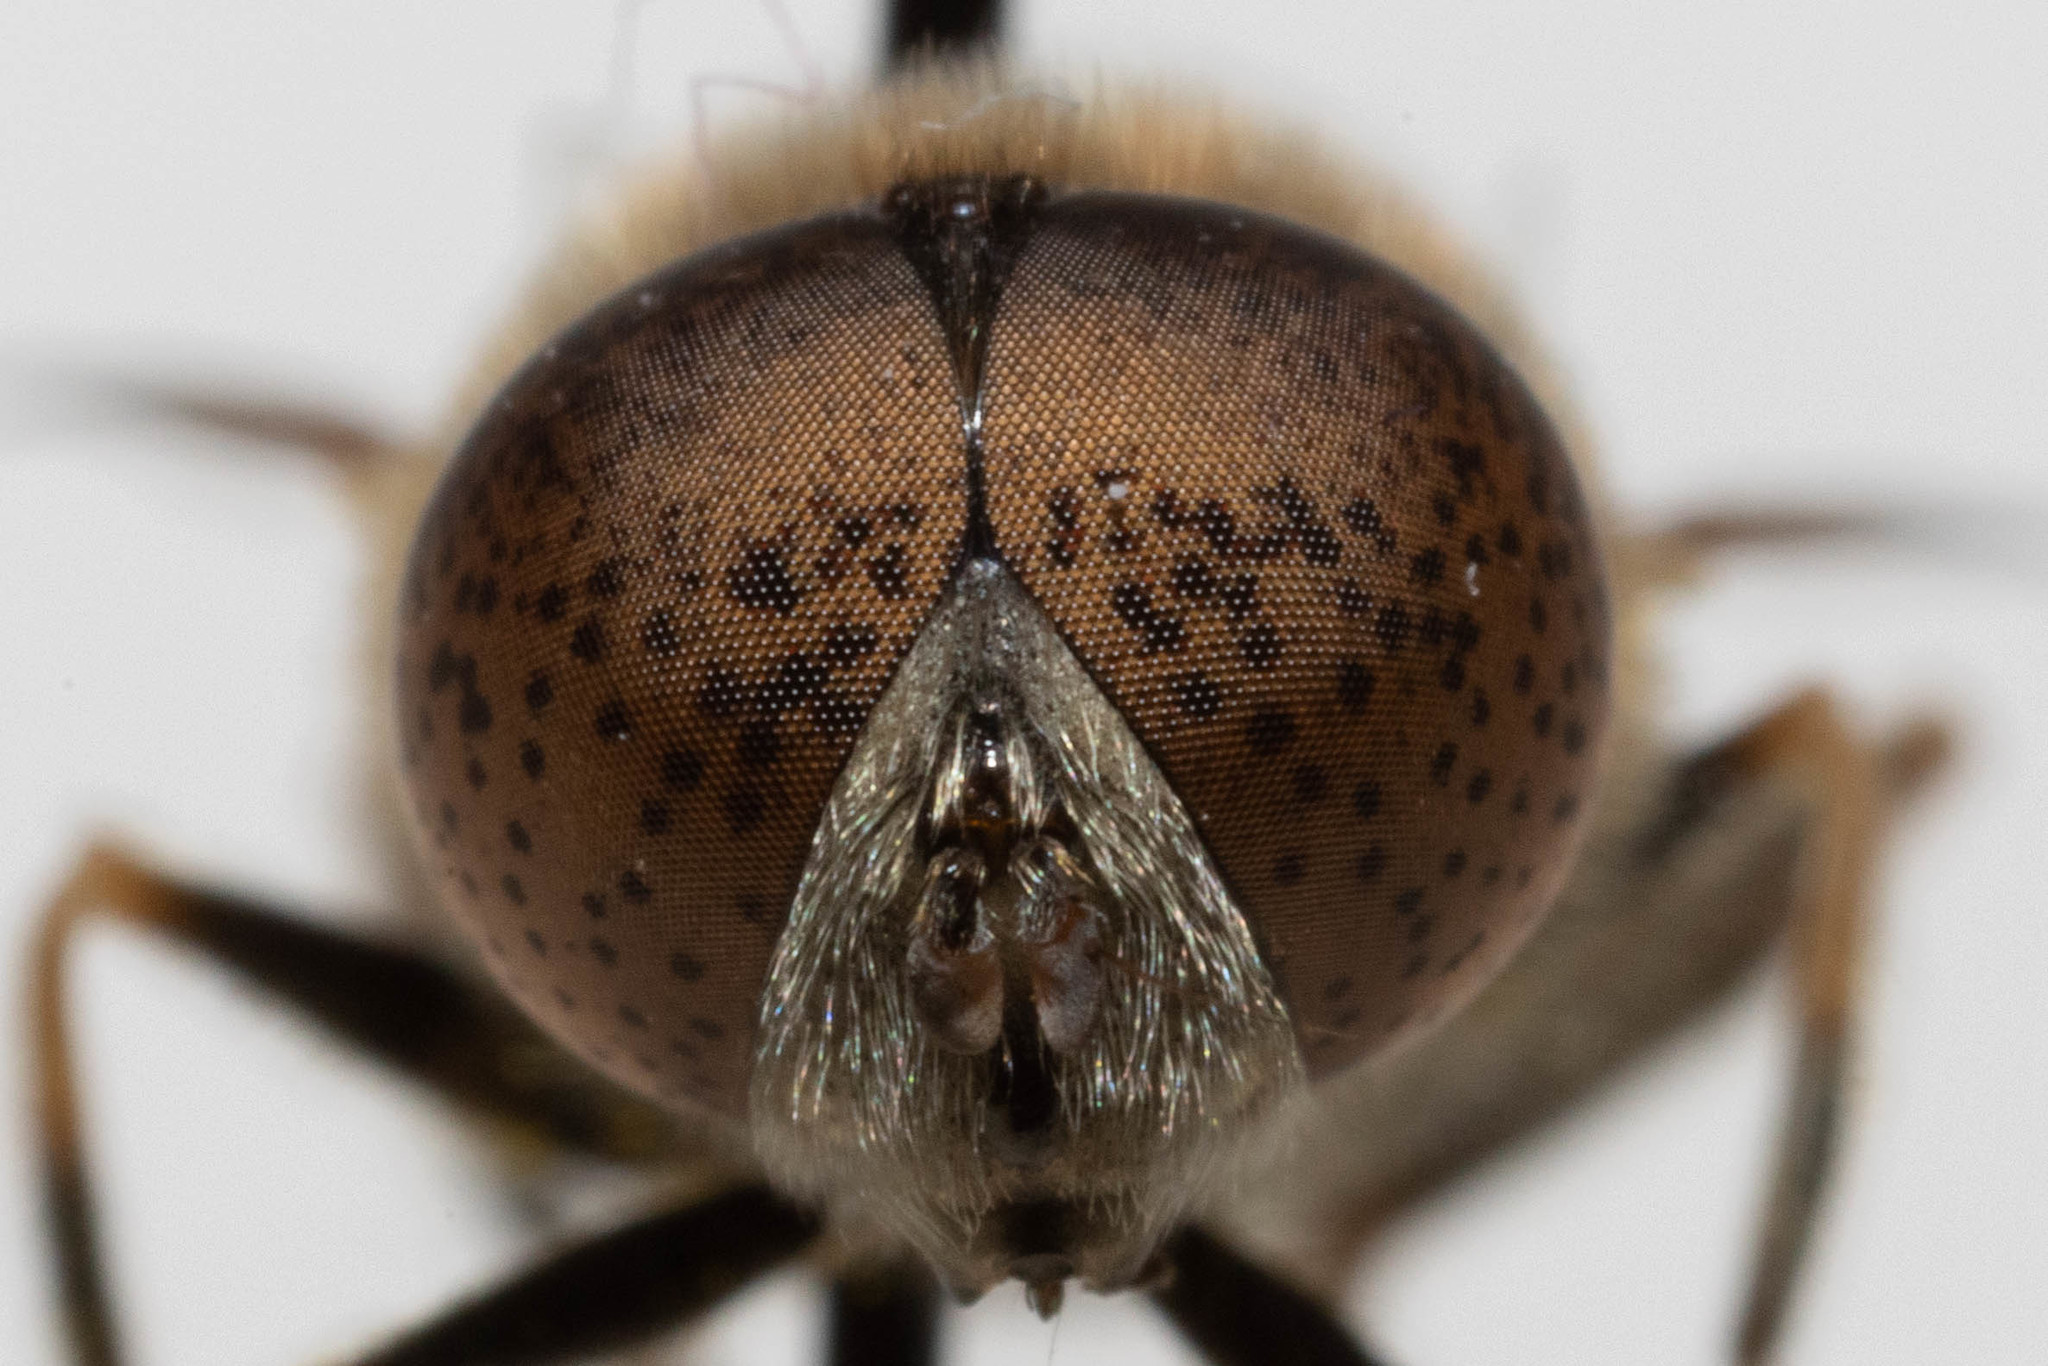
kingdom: Animalia
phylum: Arthropoda
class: Insecta
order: Diptera
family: Syrphidae
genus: Eristalinus
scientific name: Eristalinus aeneus
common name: Syrphid fly
